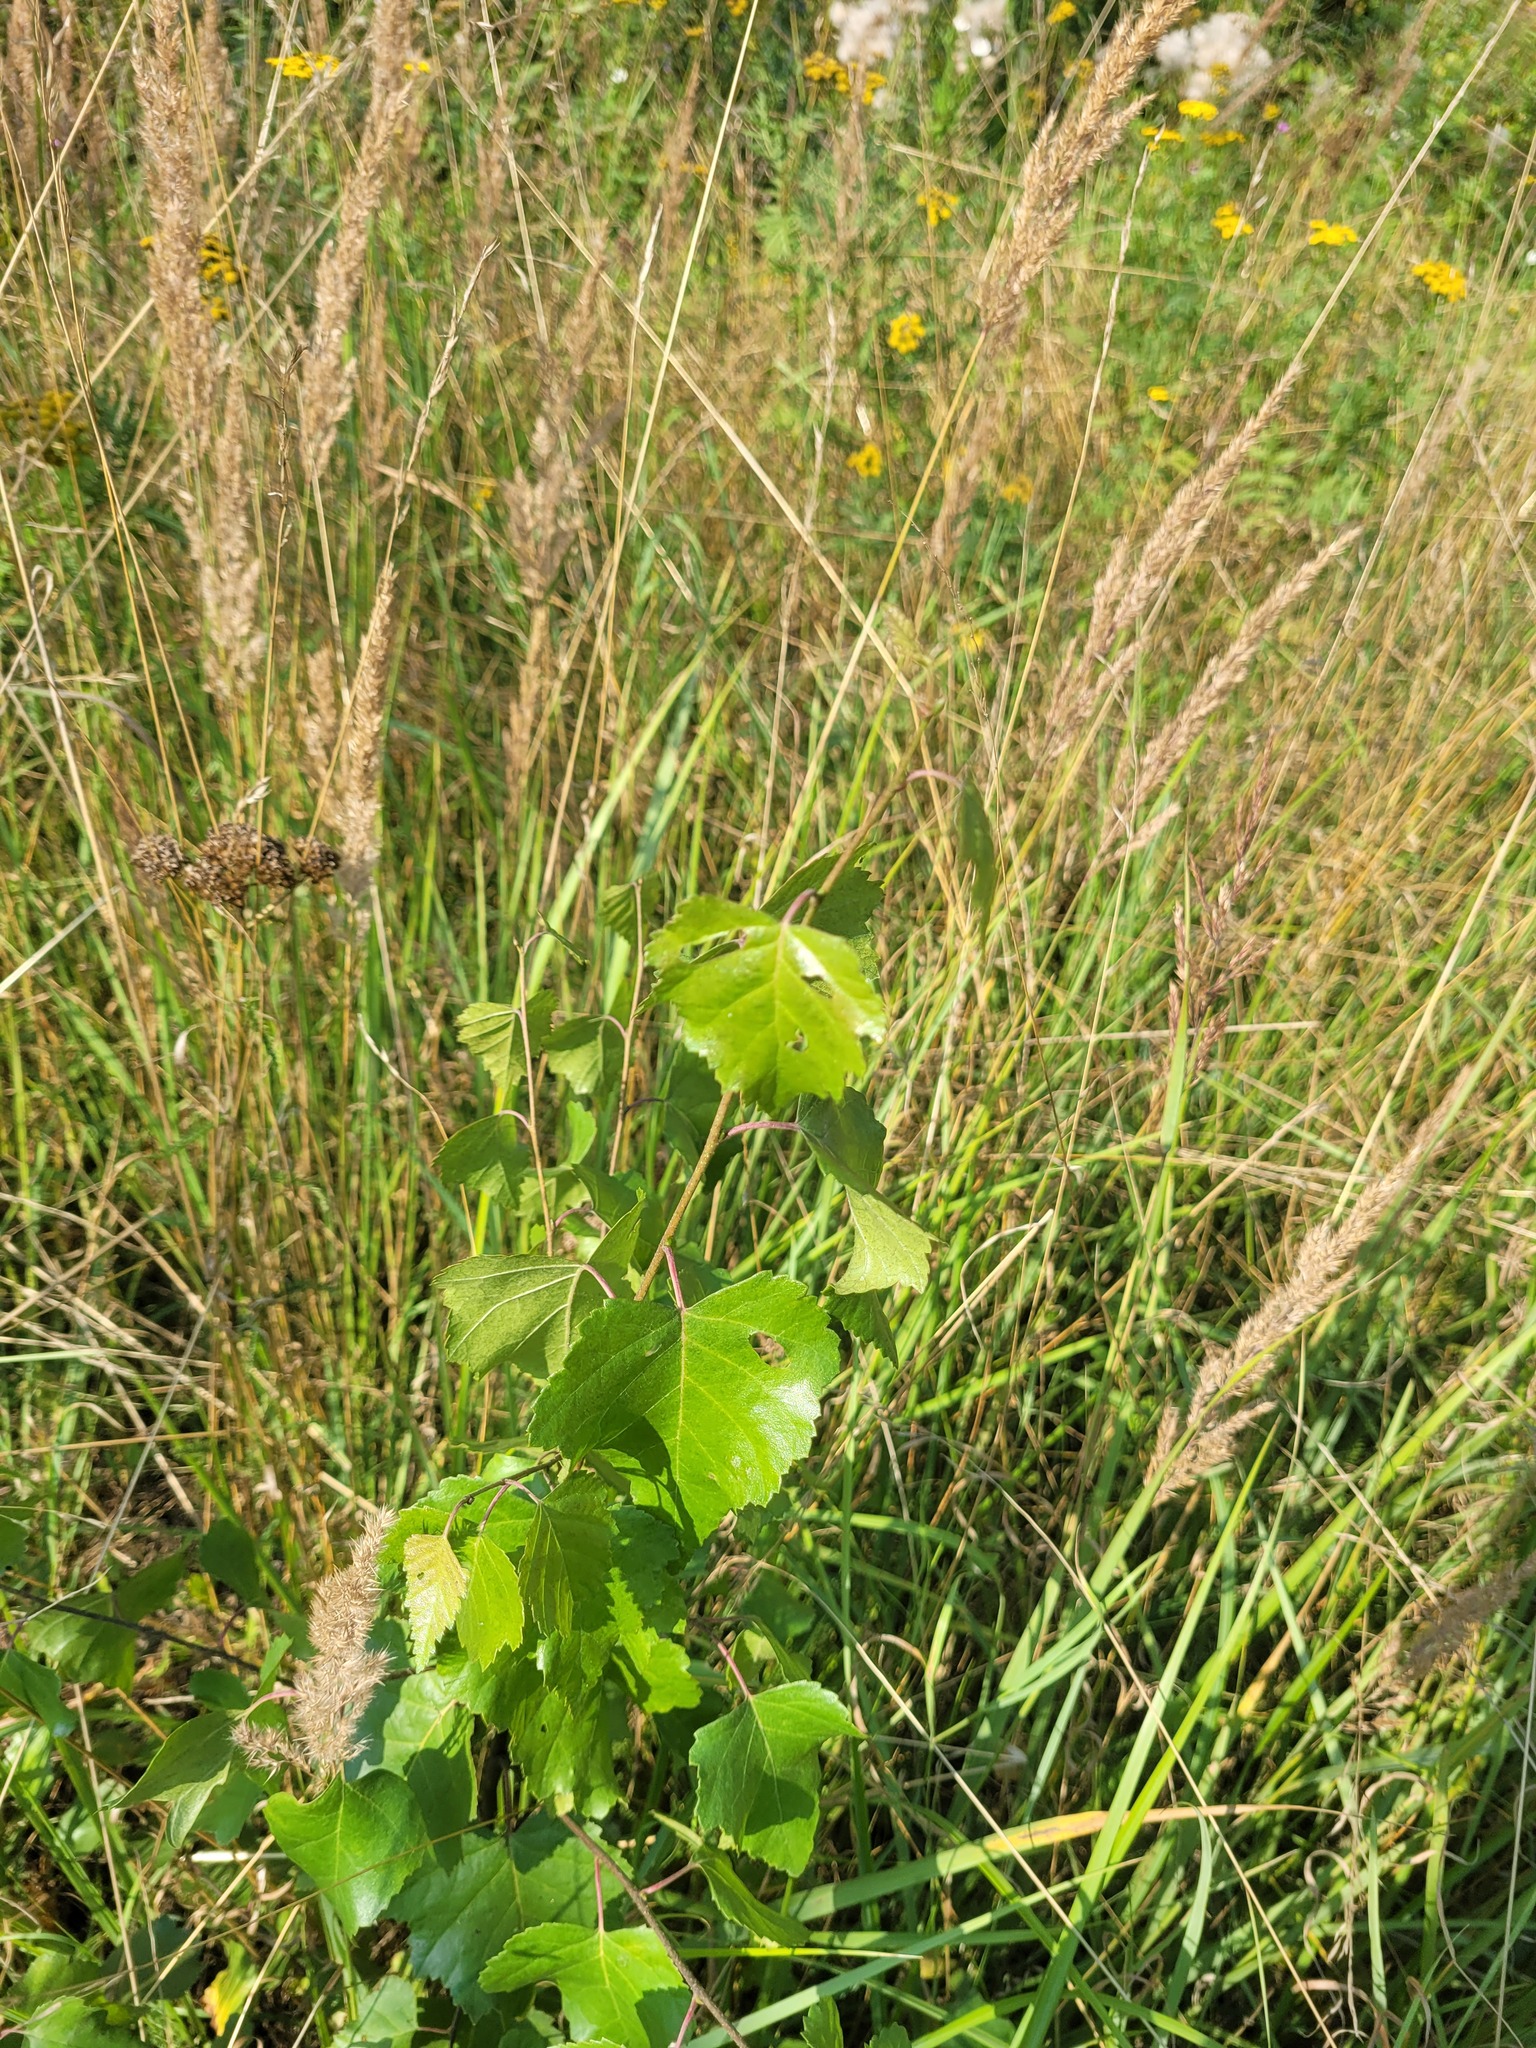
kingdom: Plantae
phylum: Tracheophyta
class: Magnoliopsida
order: Fagales
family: Betulaceae
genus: Betula
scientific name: Betula pendula
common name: Silver birch
